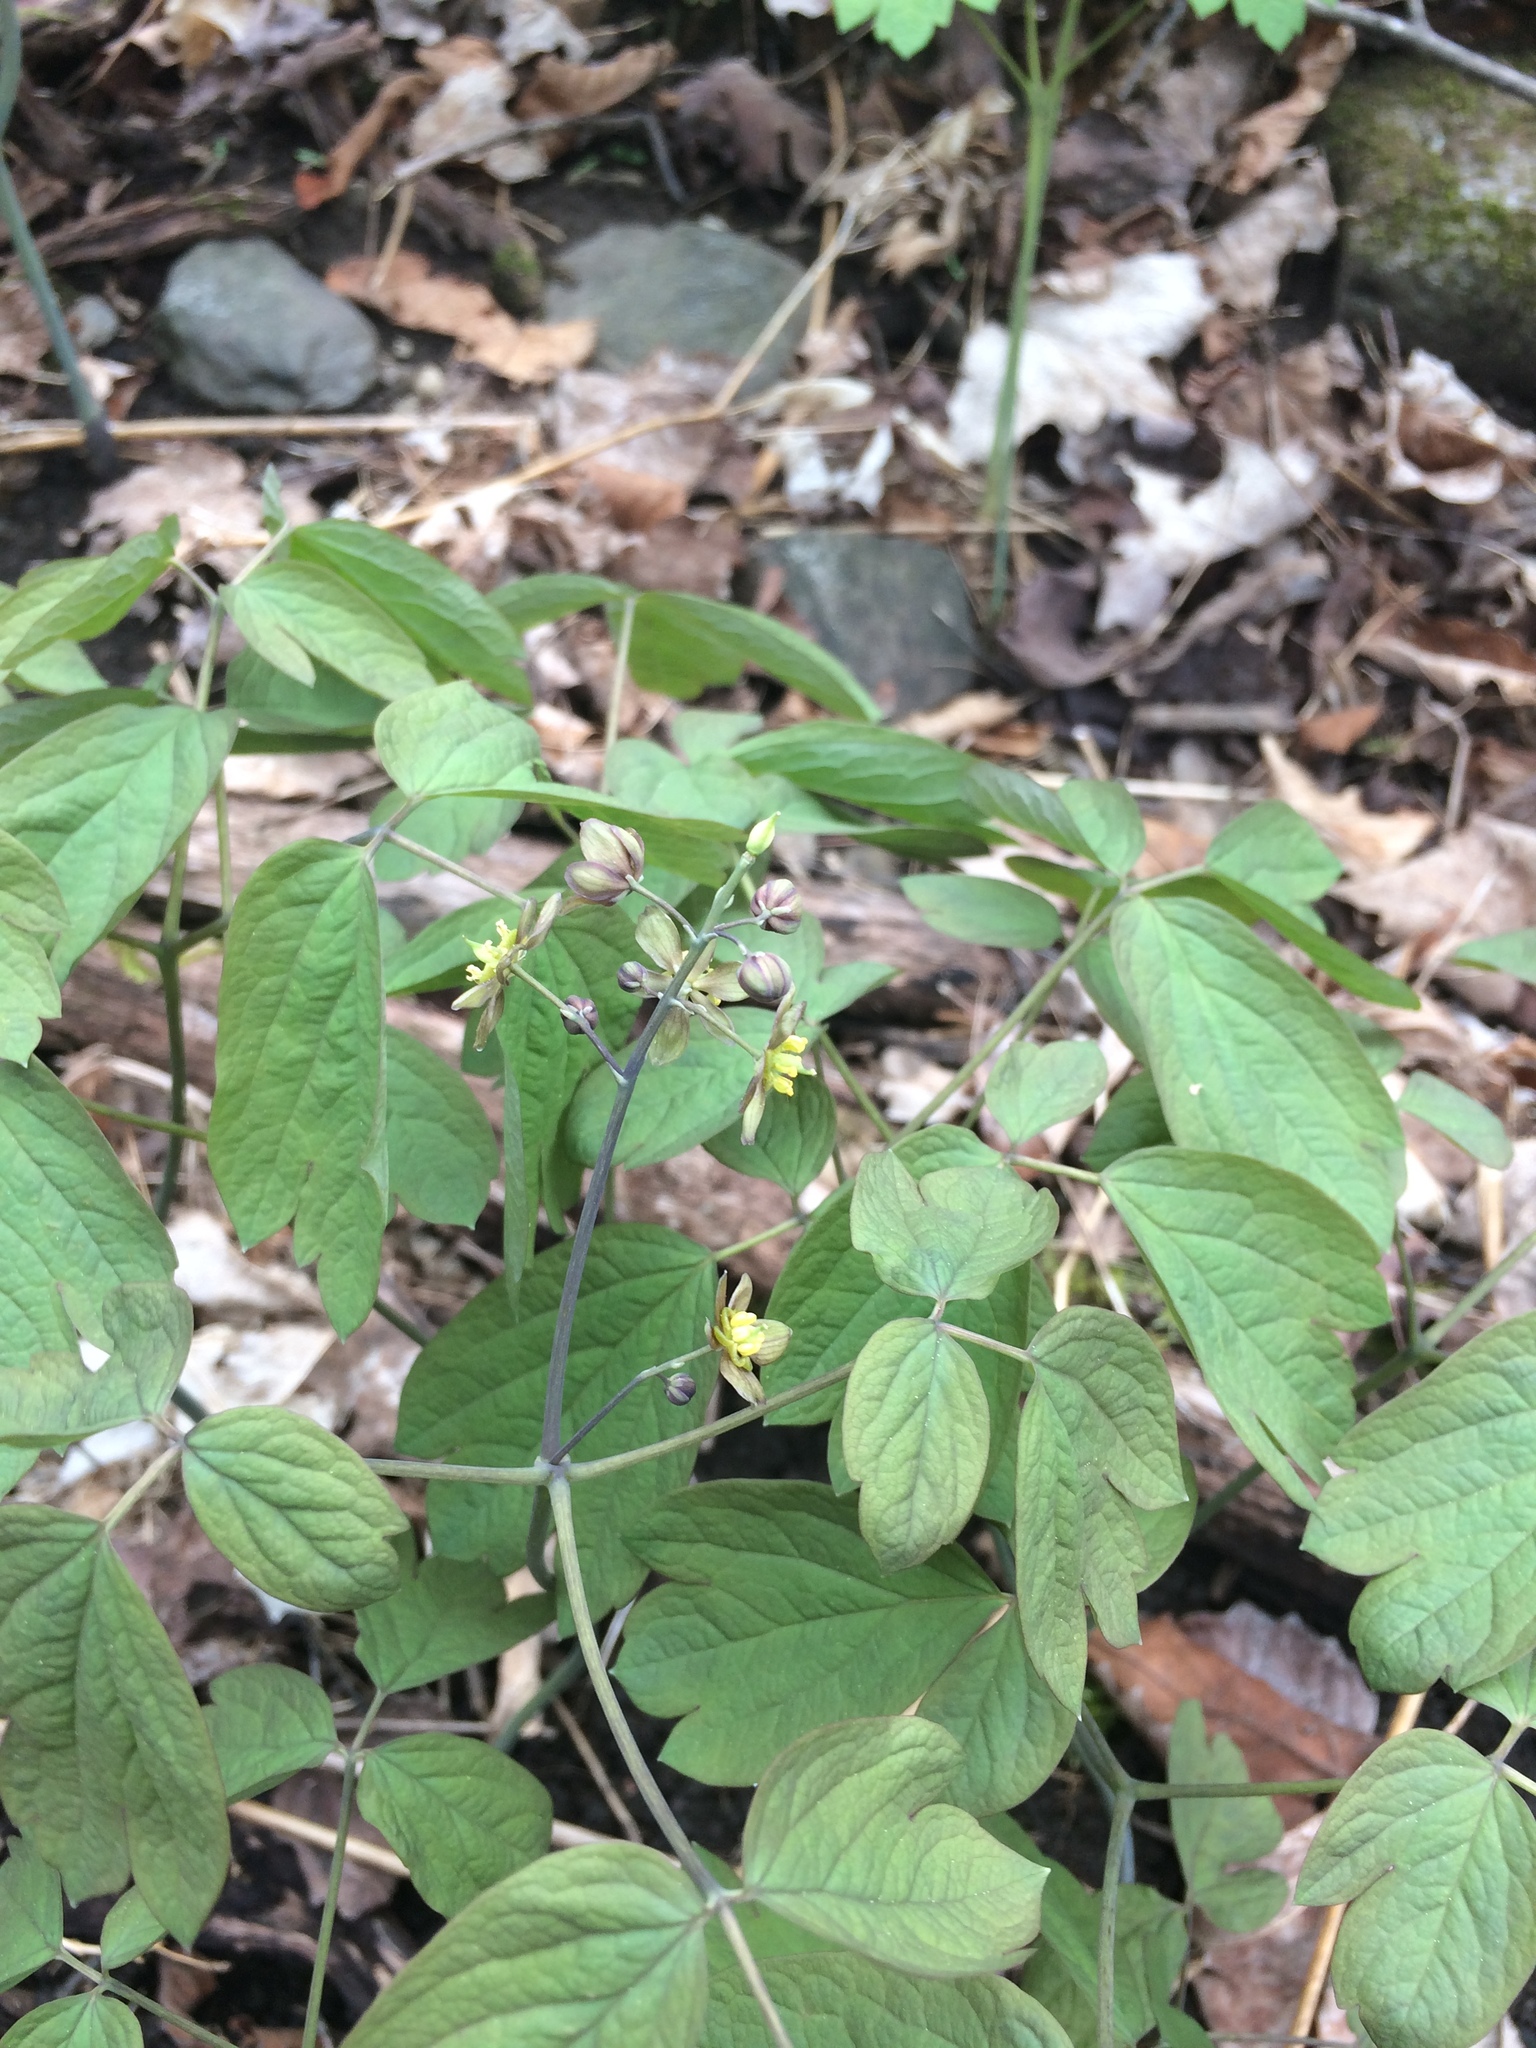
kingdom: Plantae
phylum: Tracheophyta
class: Magnoliopsida
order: Ranunculales
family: Berberidaceae
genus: Caulophyllum
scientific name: Caulophyllum giganteum
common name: Blue cohosh
